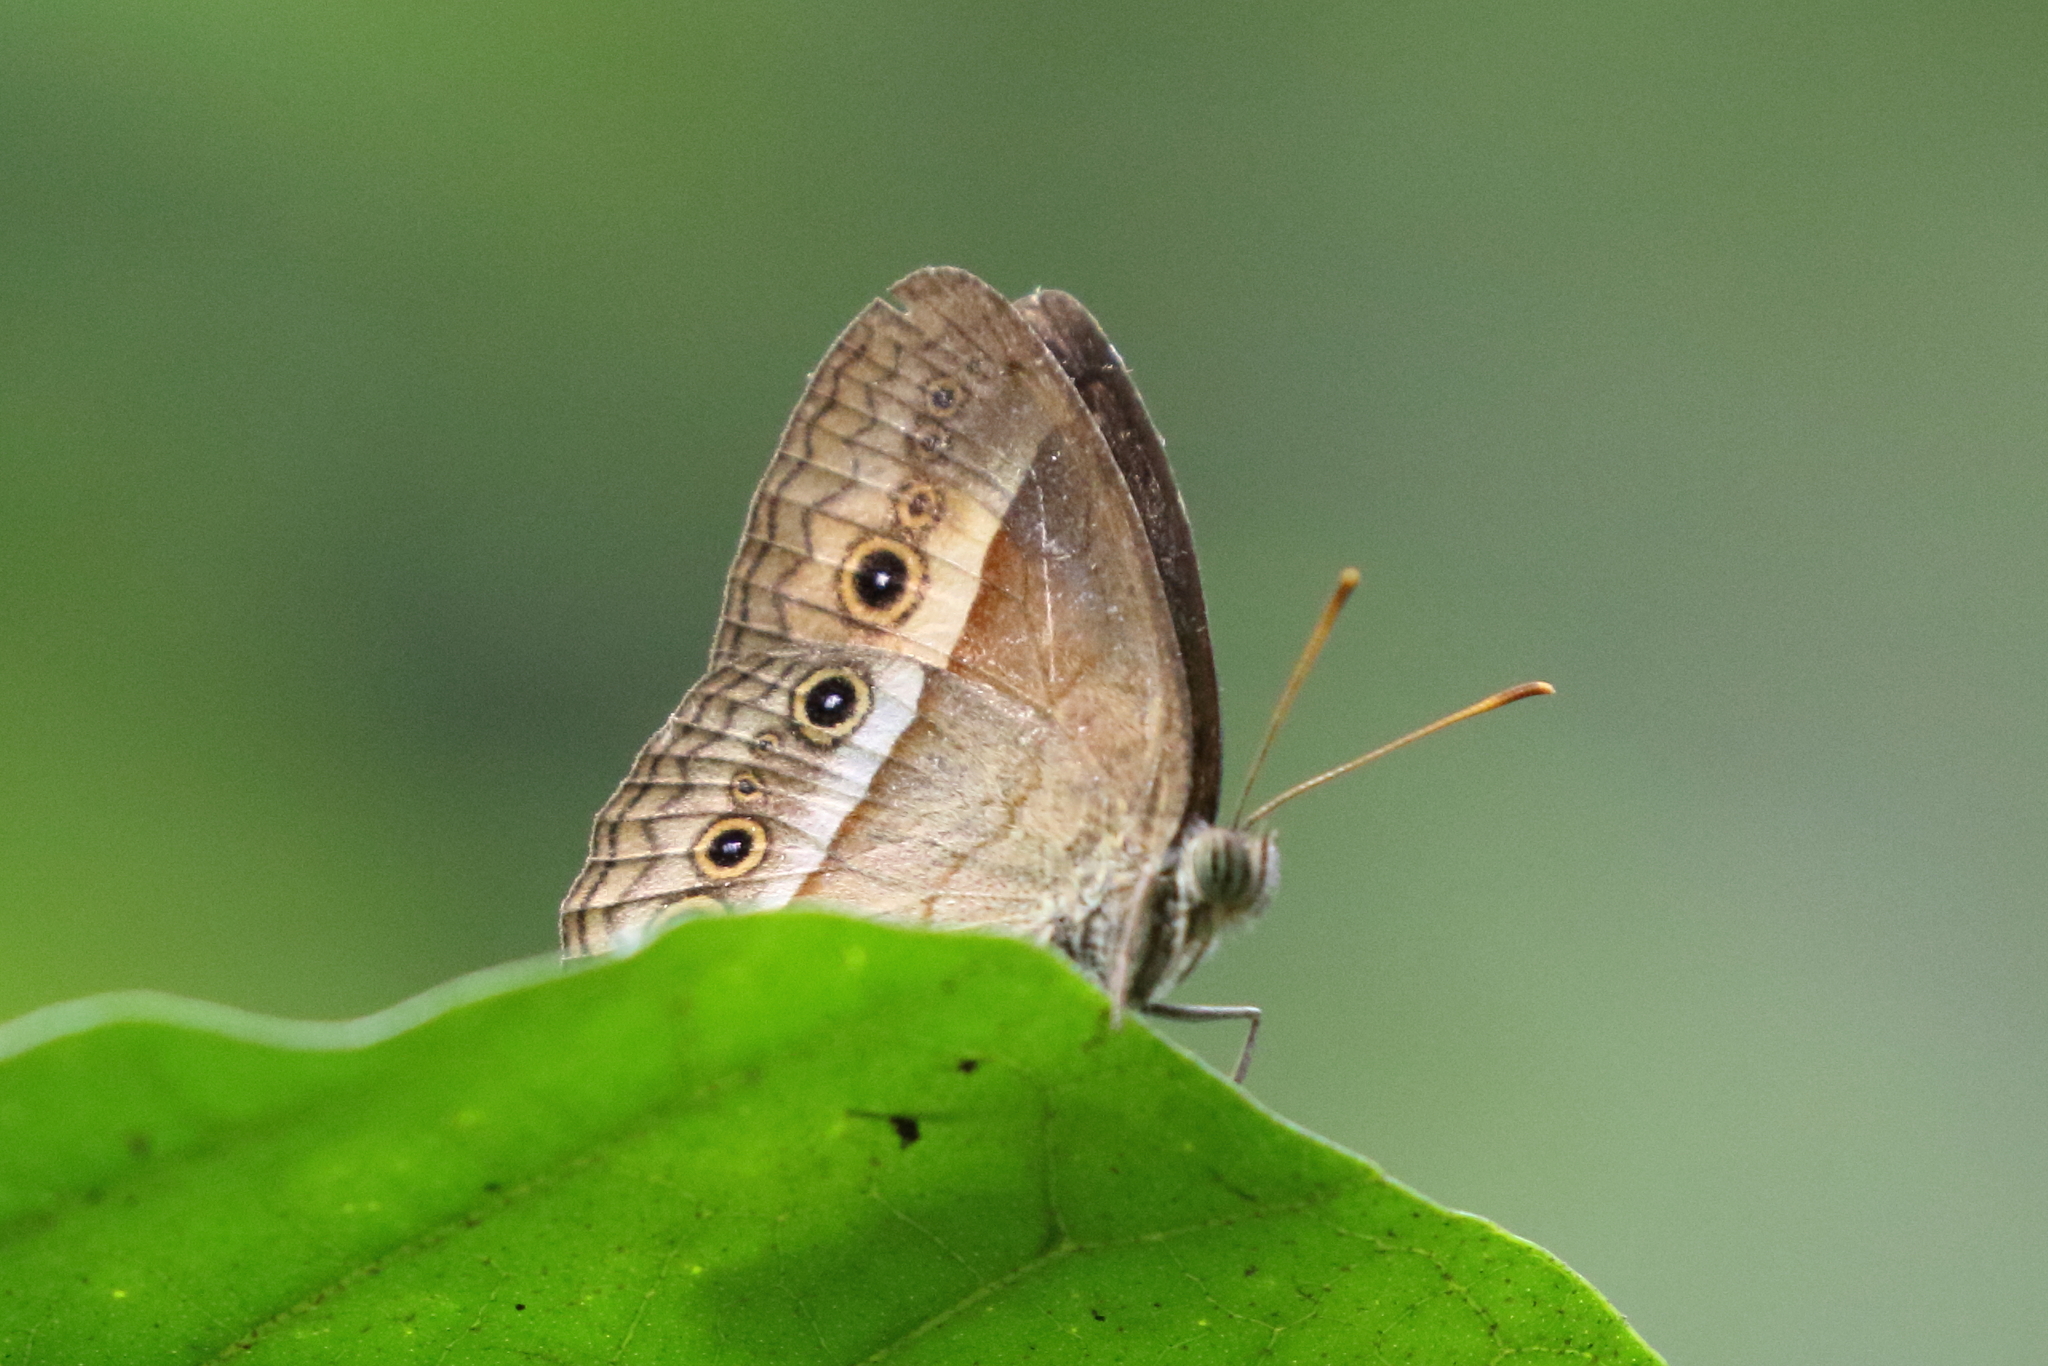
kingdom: Animalia
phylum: Arthropoda
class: Insecta
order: Lepidoptera
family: Nymphalidae
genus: Mycalesis
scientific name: Mycalesis terminus
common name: Orange bushbrown
